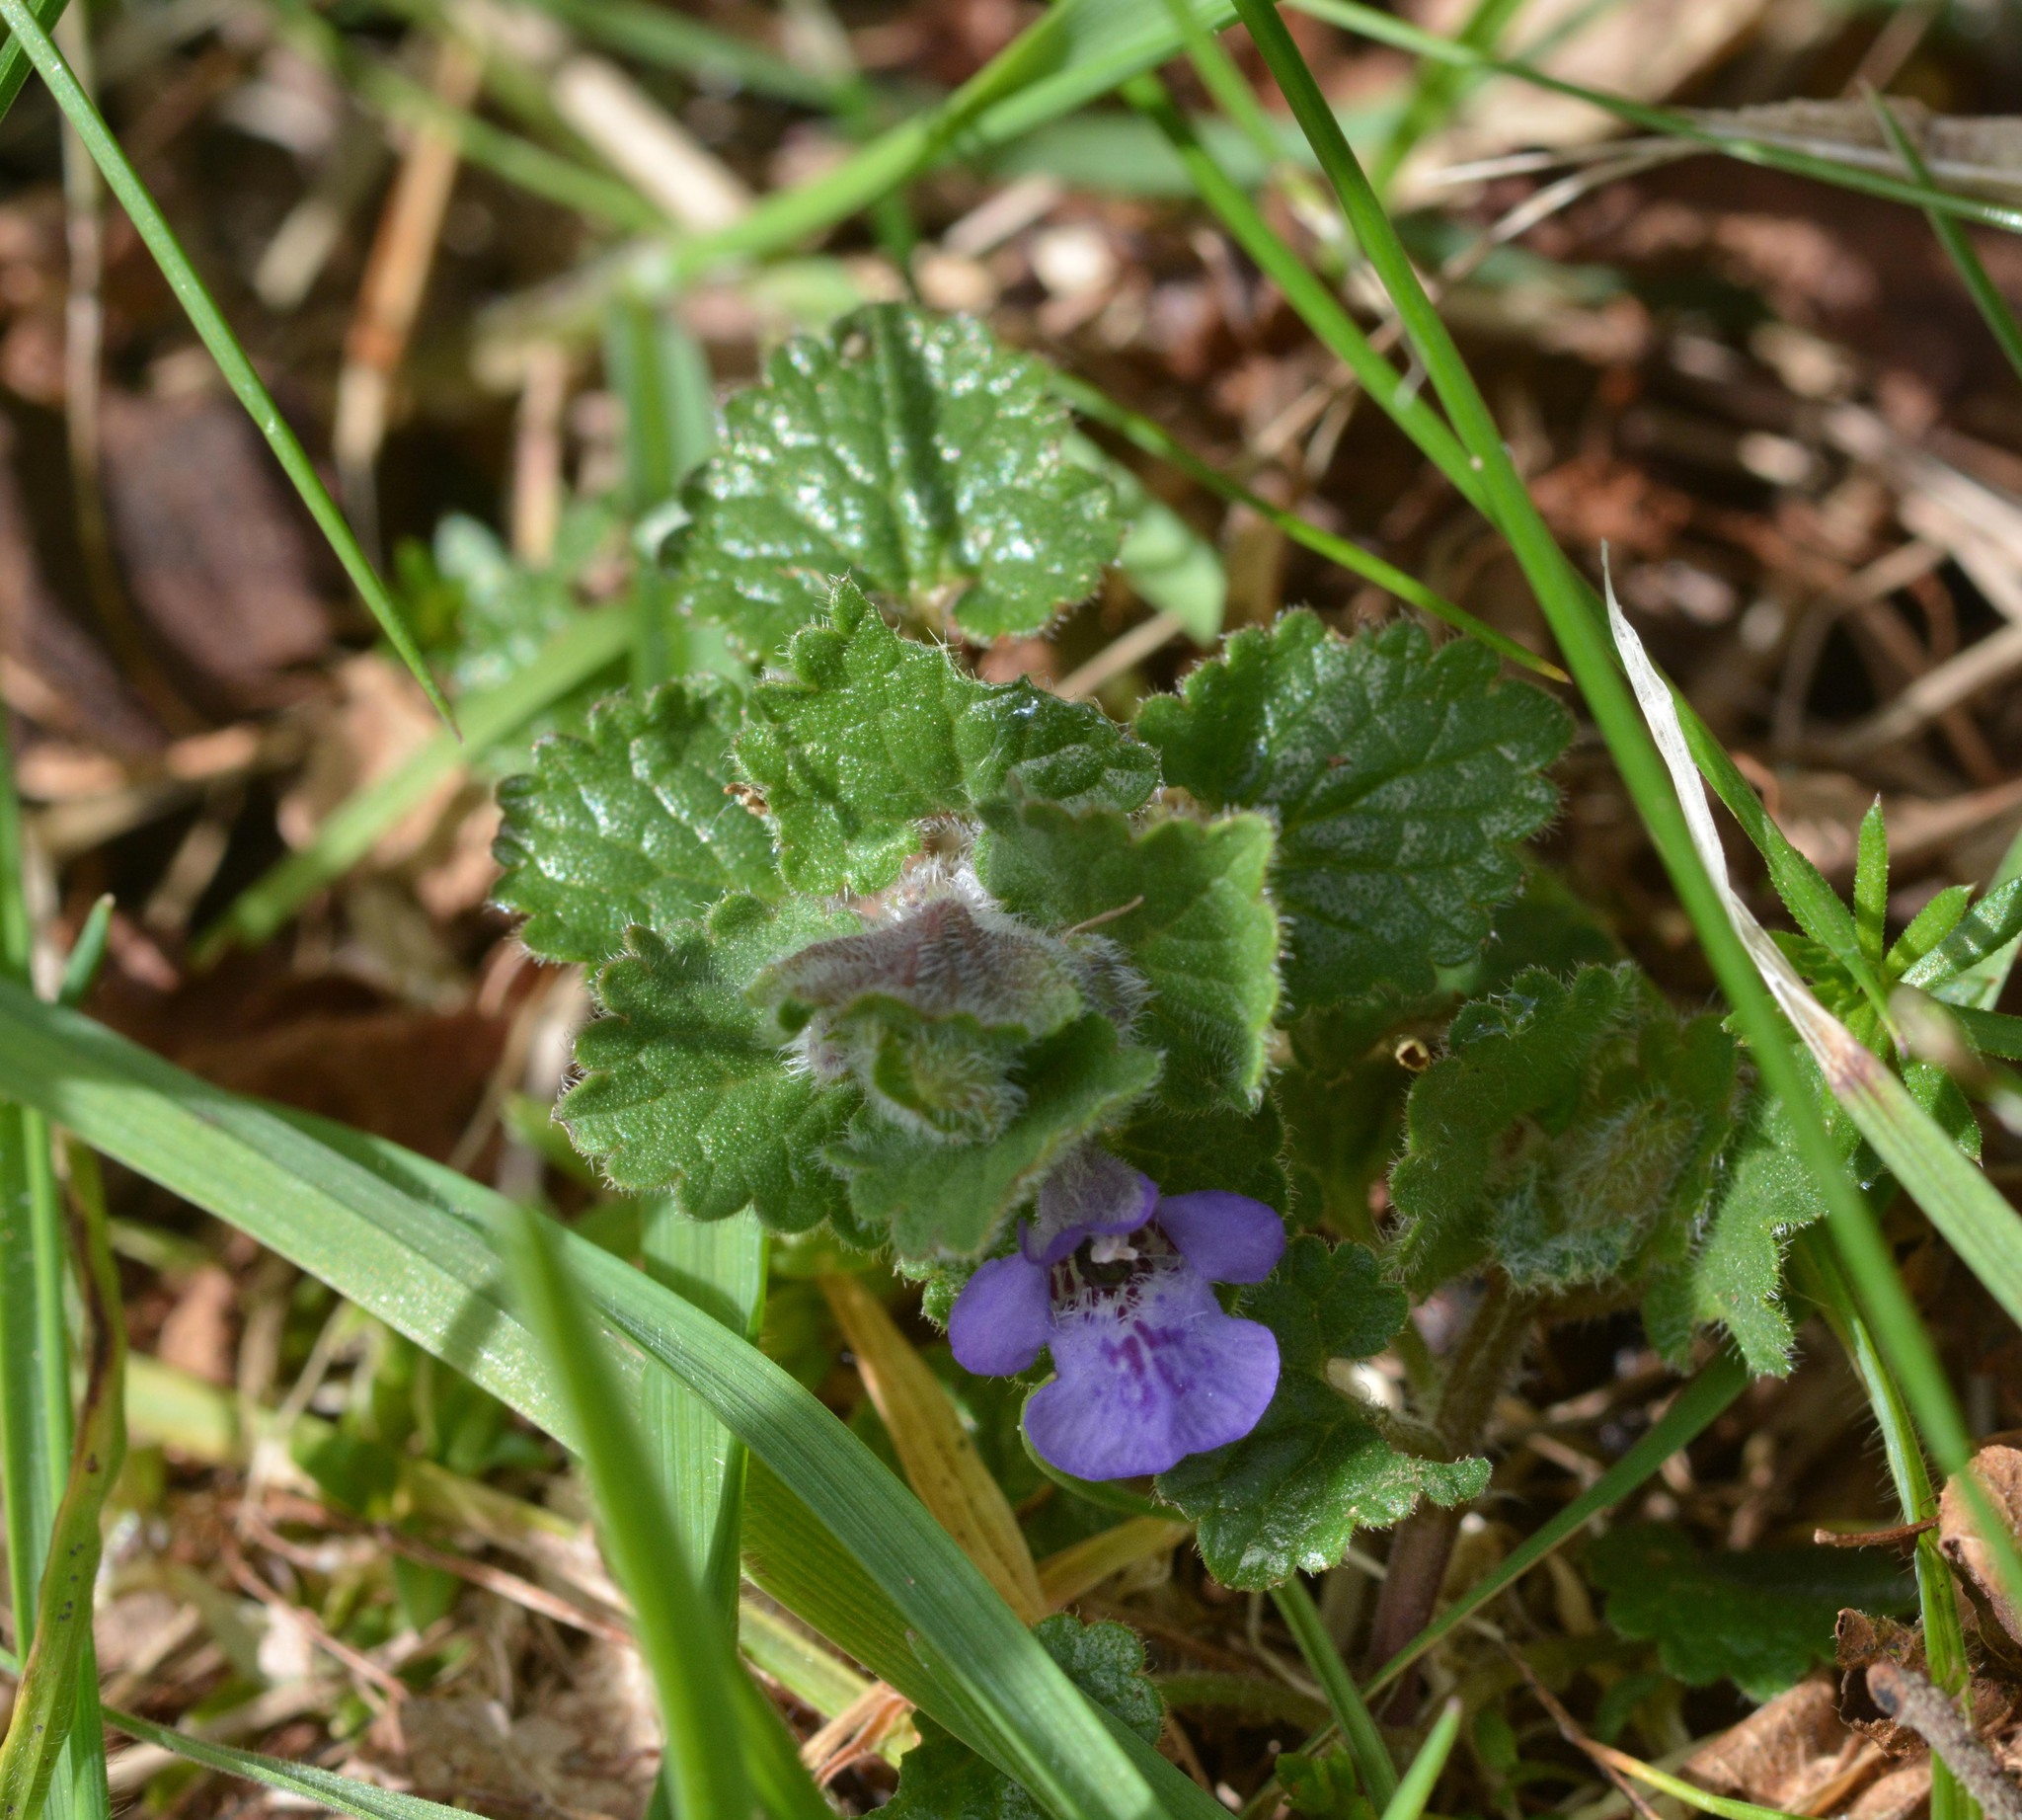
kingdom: Plantae
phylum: Tracheophyta
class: Magnoliopsida
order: Lamiales
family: Lamiaceae
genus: Glechoma
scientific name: Glechoma hederacea
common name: Ground ivy
